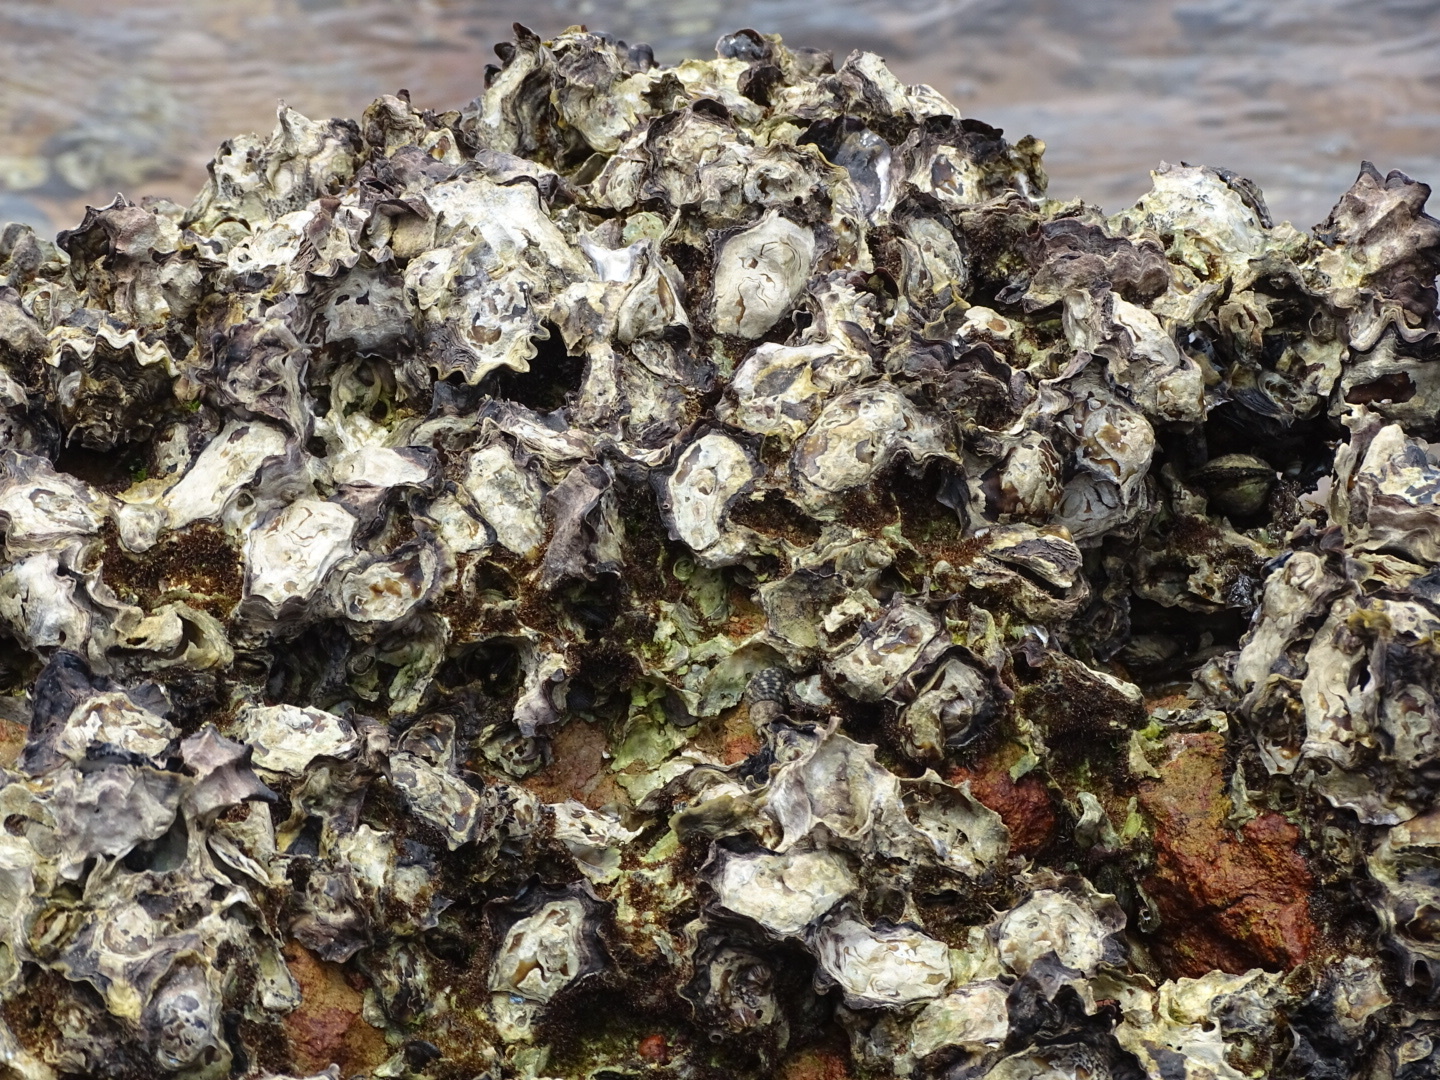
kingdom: Animalia
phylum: Mollusca
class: Bivalvia
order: Ostreida
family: Ostreidae
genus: Saccostrea
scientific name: Saccostrea cuccullata
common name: Natal rock oyster
